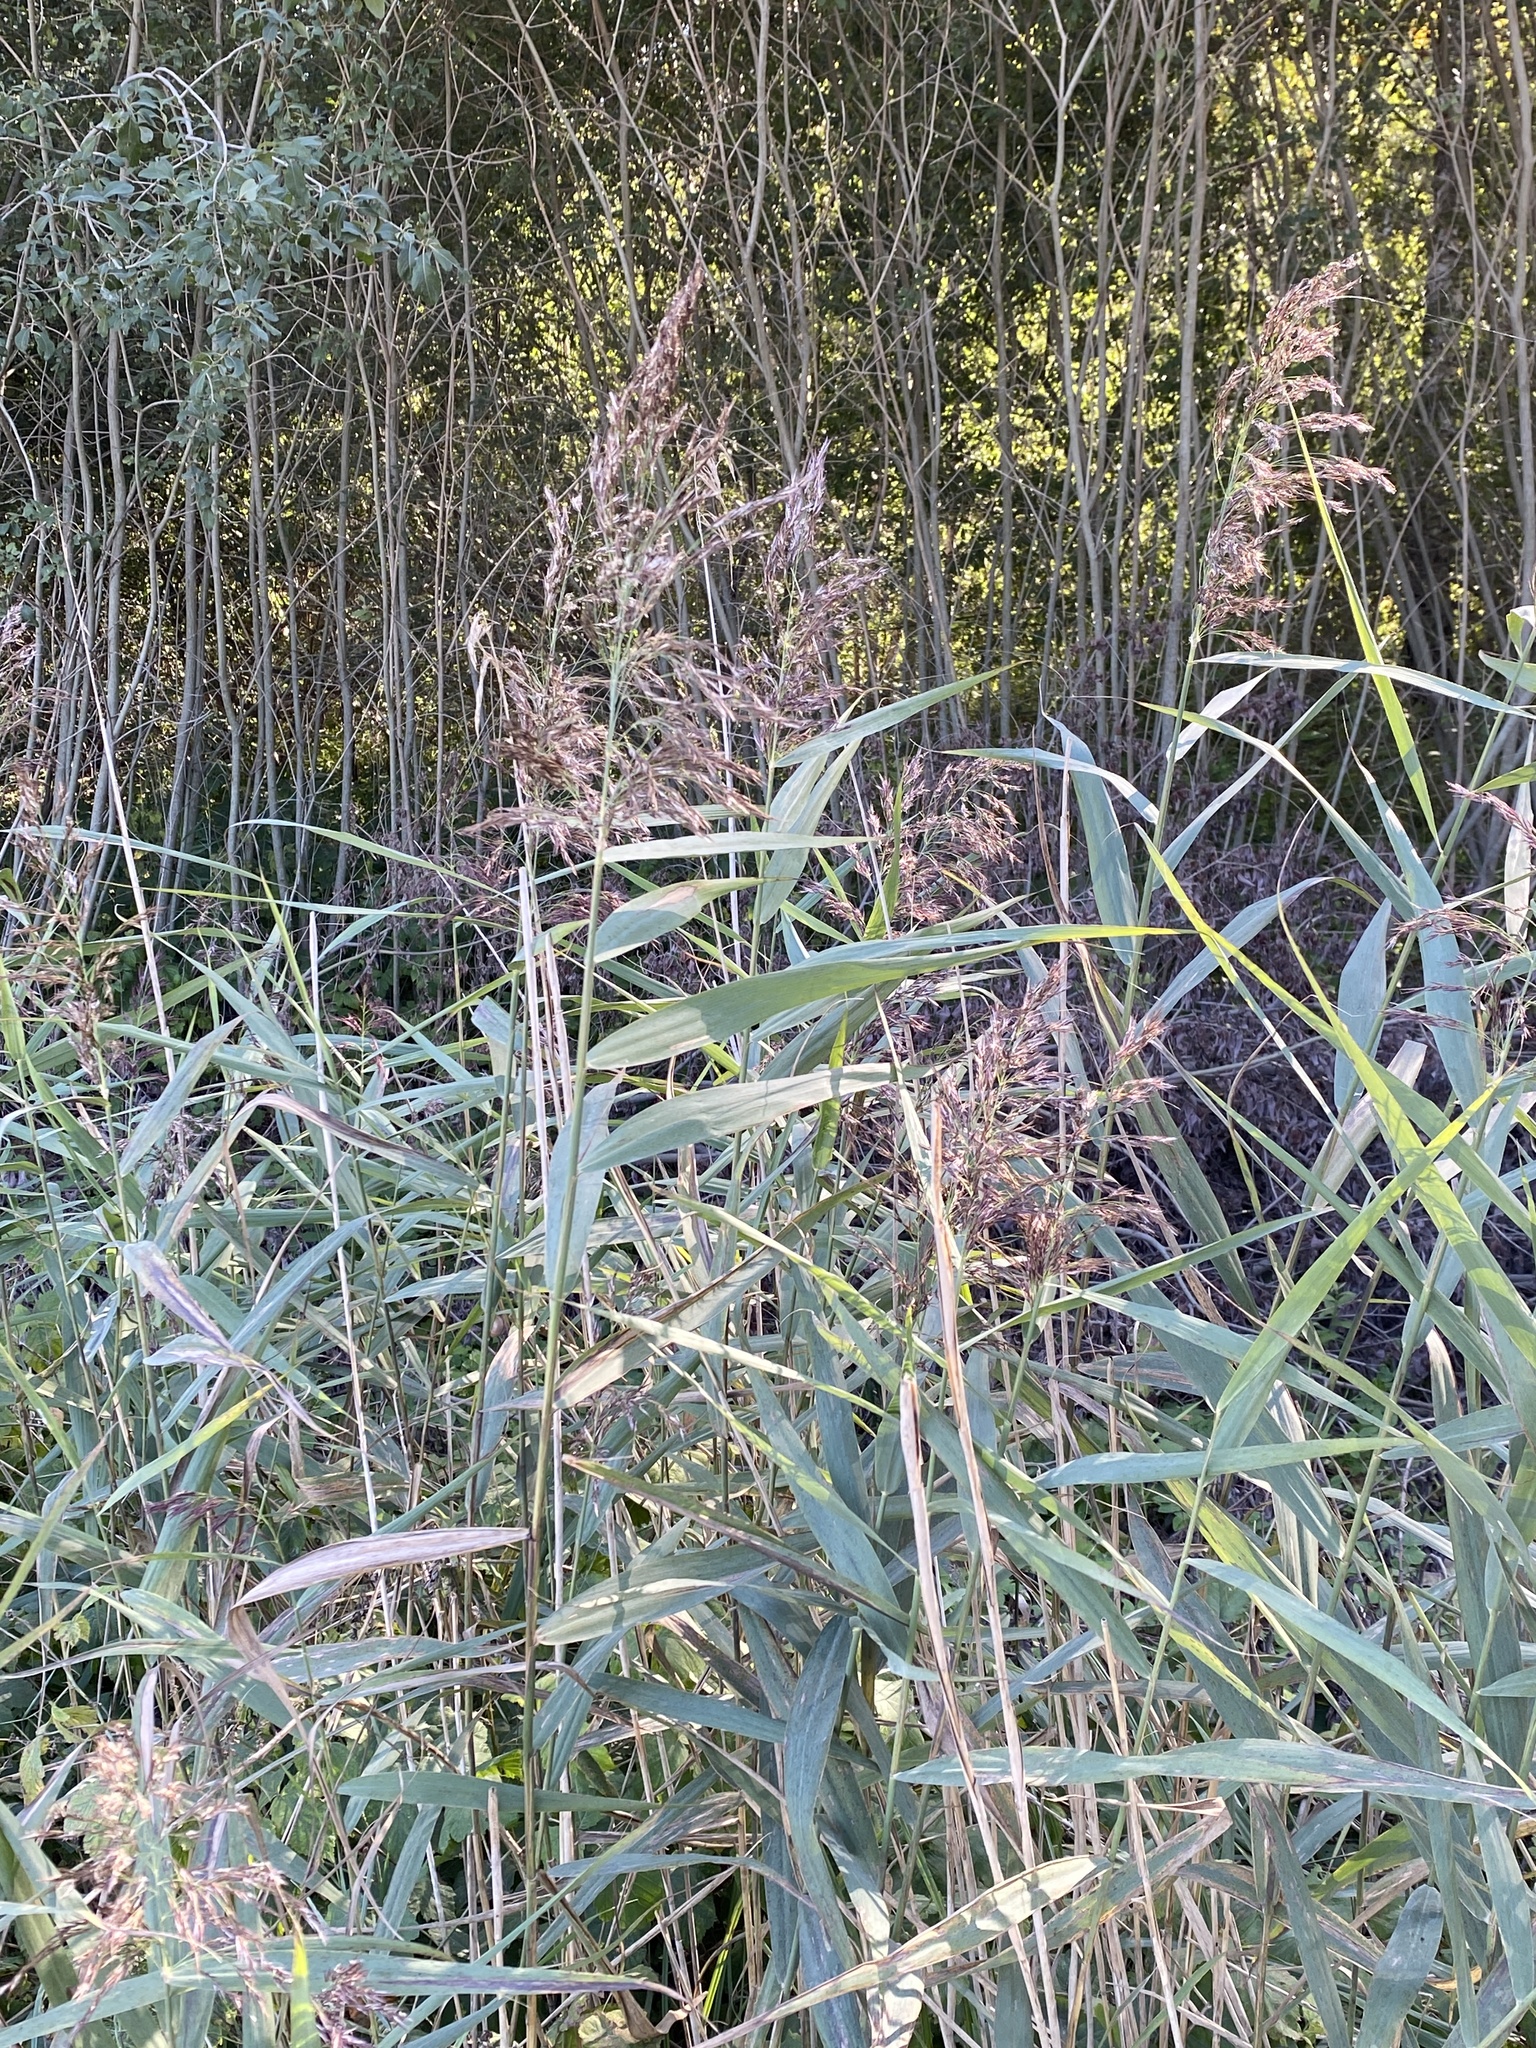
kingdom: Plantae
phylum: Tracheophyta
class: Liliopsida
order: Poales
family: Poaceae
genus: Phragmites
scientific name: Phragmites australis
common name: Common reed
